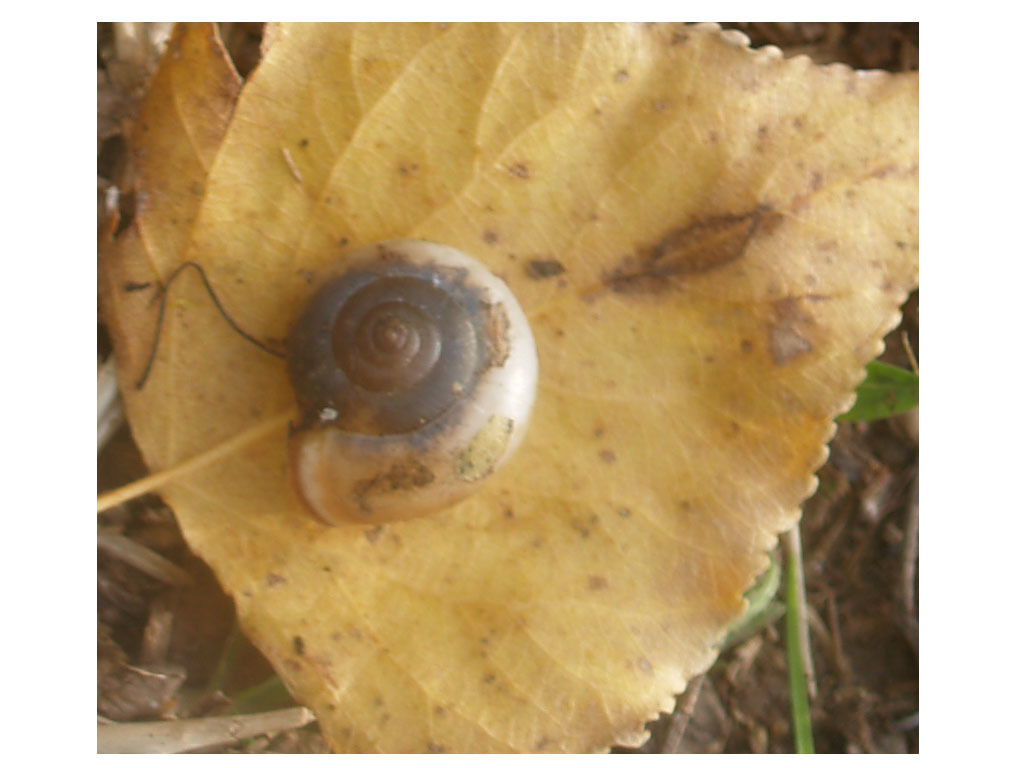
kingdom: Animalia
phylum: Mollusca
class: Gastropoda
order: Stylommatophora
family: Hygromiidae
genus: Monacha
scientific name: Monacha cartusiana
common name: Carthusian snail
